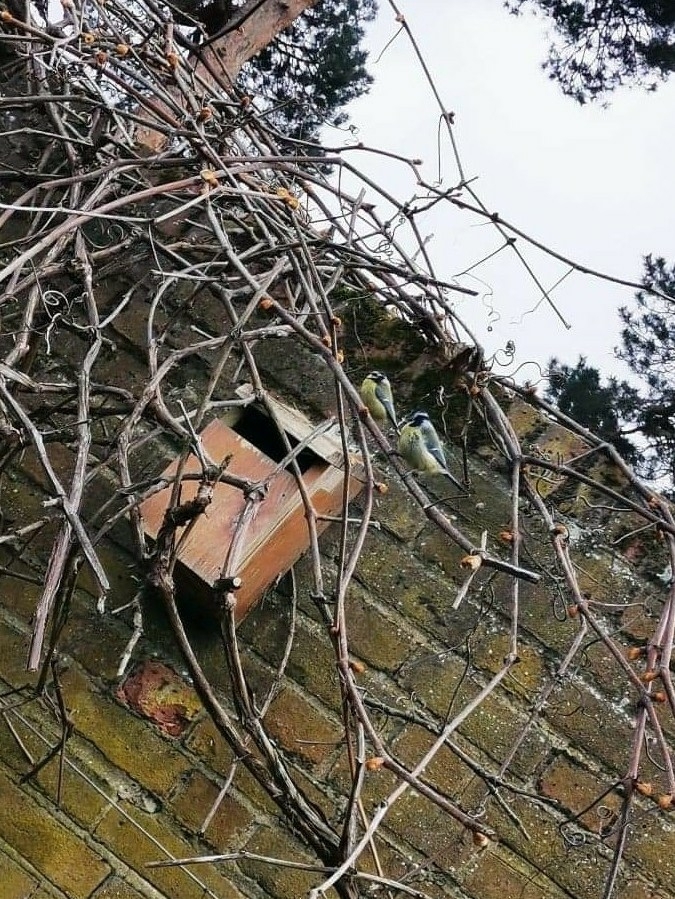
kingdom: Animalia
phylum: Chordata
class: Aves
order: Passeriformes
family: Paridae
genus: Cyanistes
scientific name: Cyanistes caeruleus
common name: Eurasian blue tit
